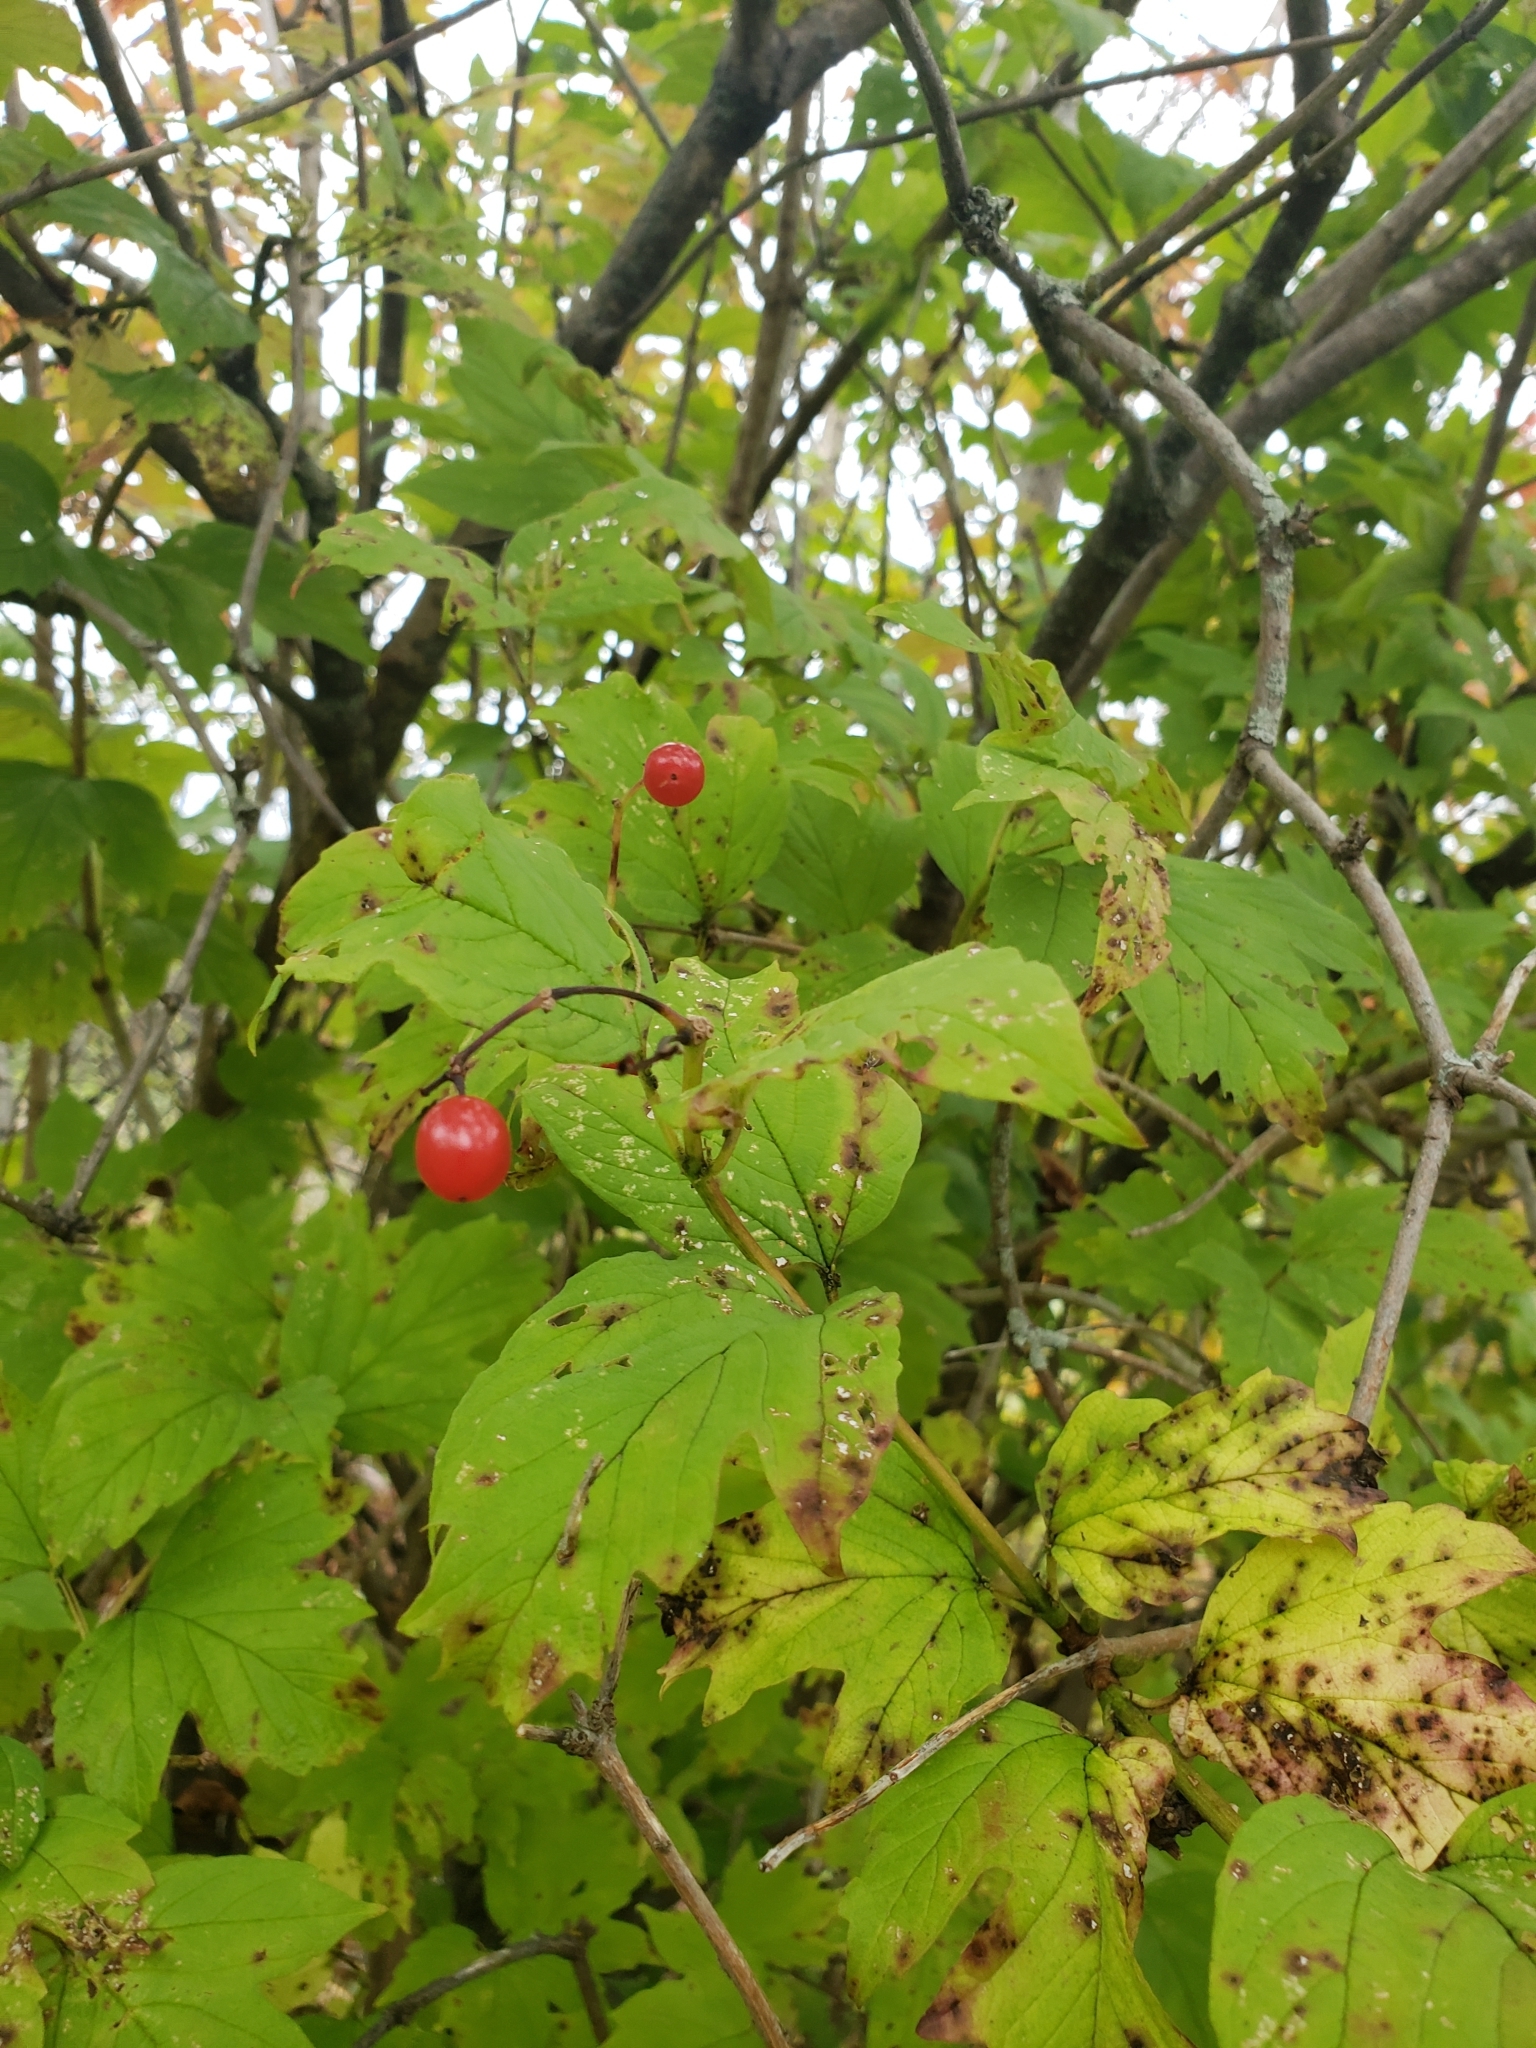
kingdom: Plantae
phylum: Tracheophyta
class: Magnoliopsida
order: Dipsacales
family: Viburnaceae
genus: Viburnum
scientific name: Viburnum opulus
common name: Guelder-rose
